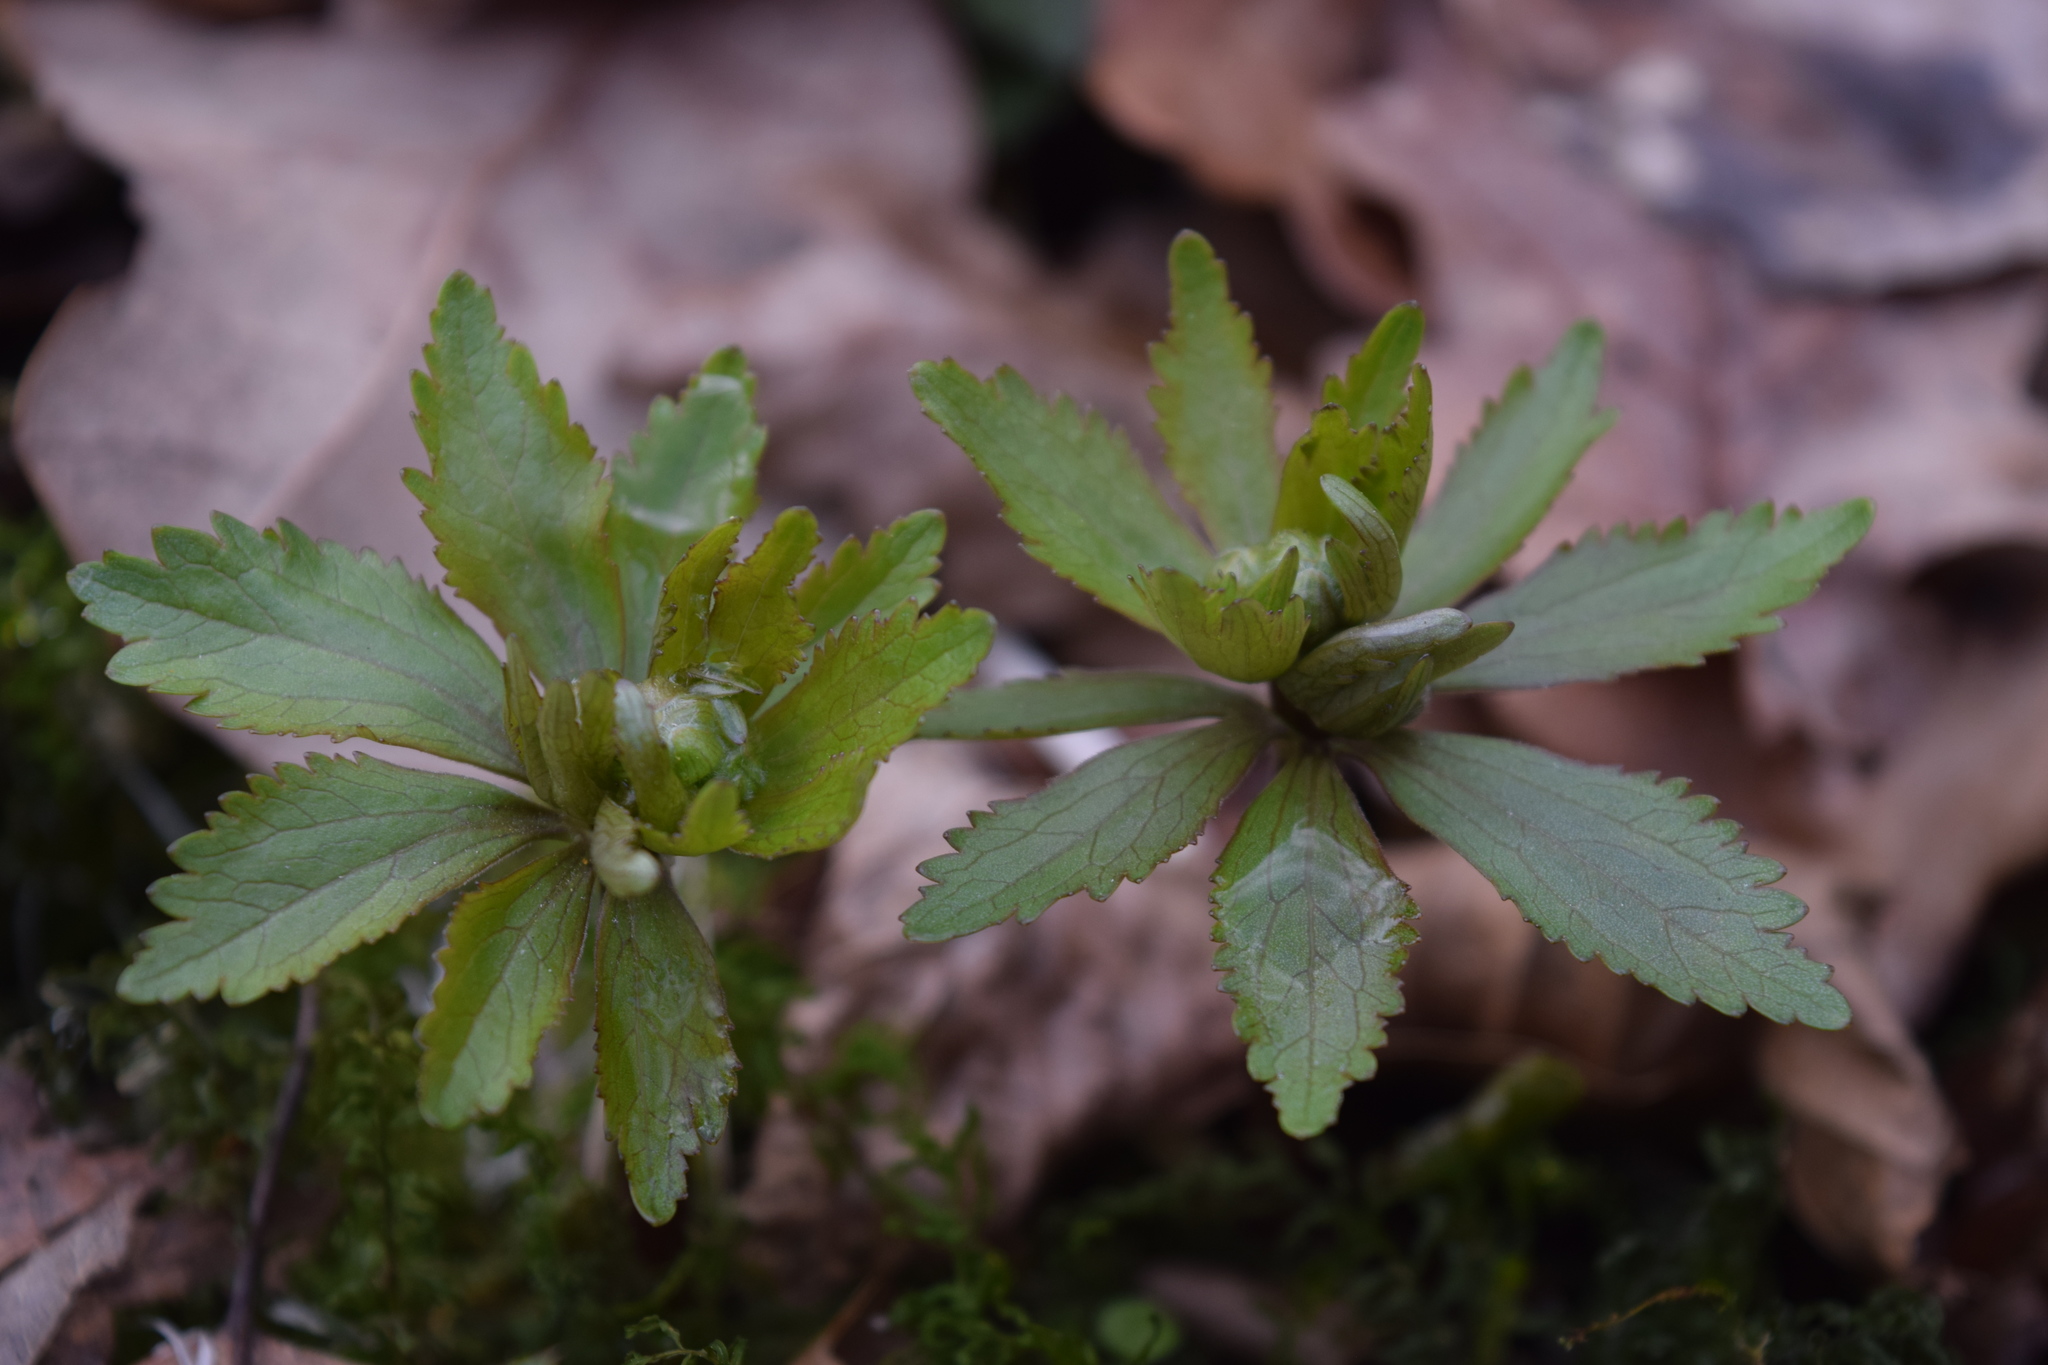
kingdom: Plantae
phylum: Tracheophyta
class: Magnoliopsida
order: Ranunculales
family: Ranunculaceae
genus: Ranunculus
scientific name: Ranunculus cassubicus
